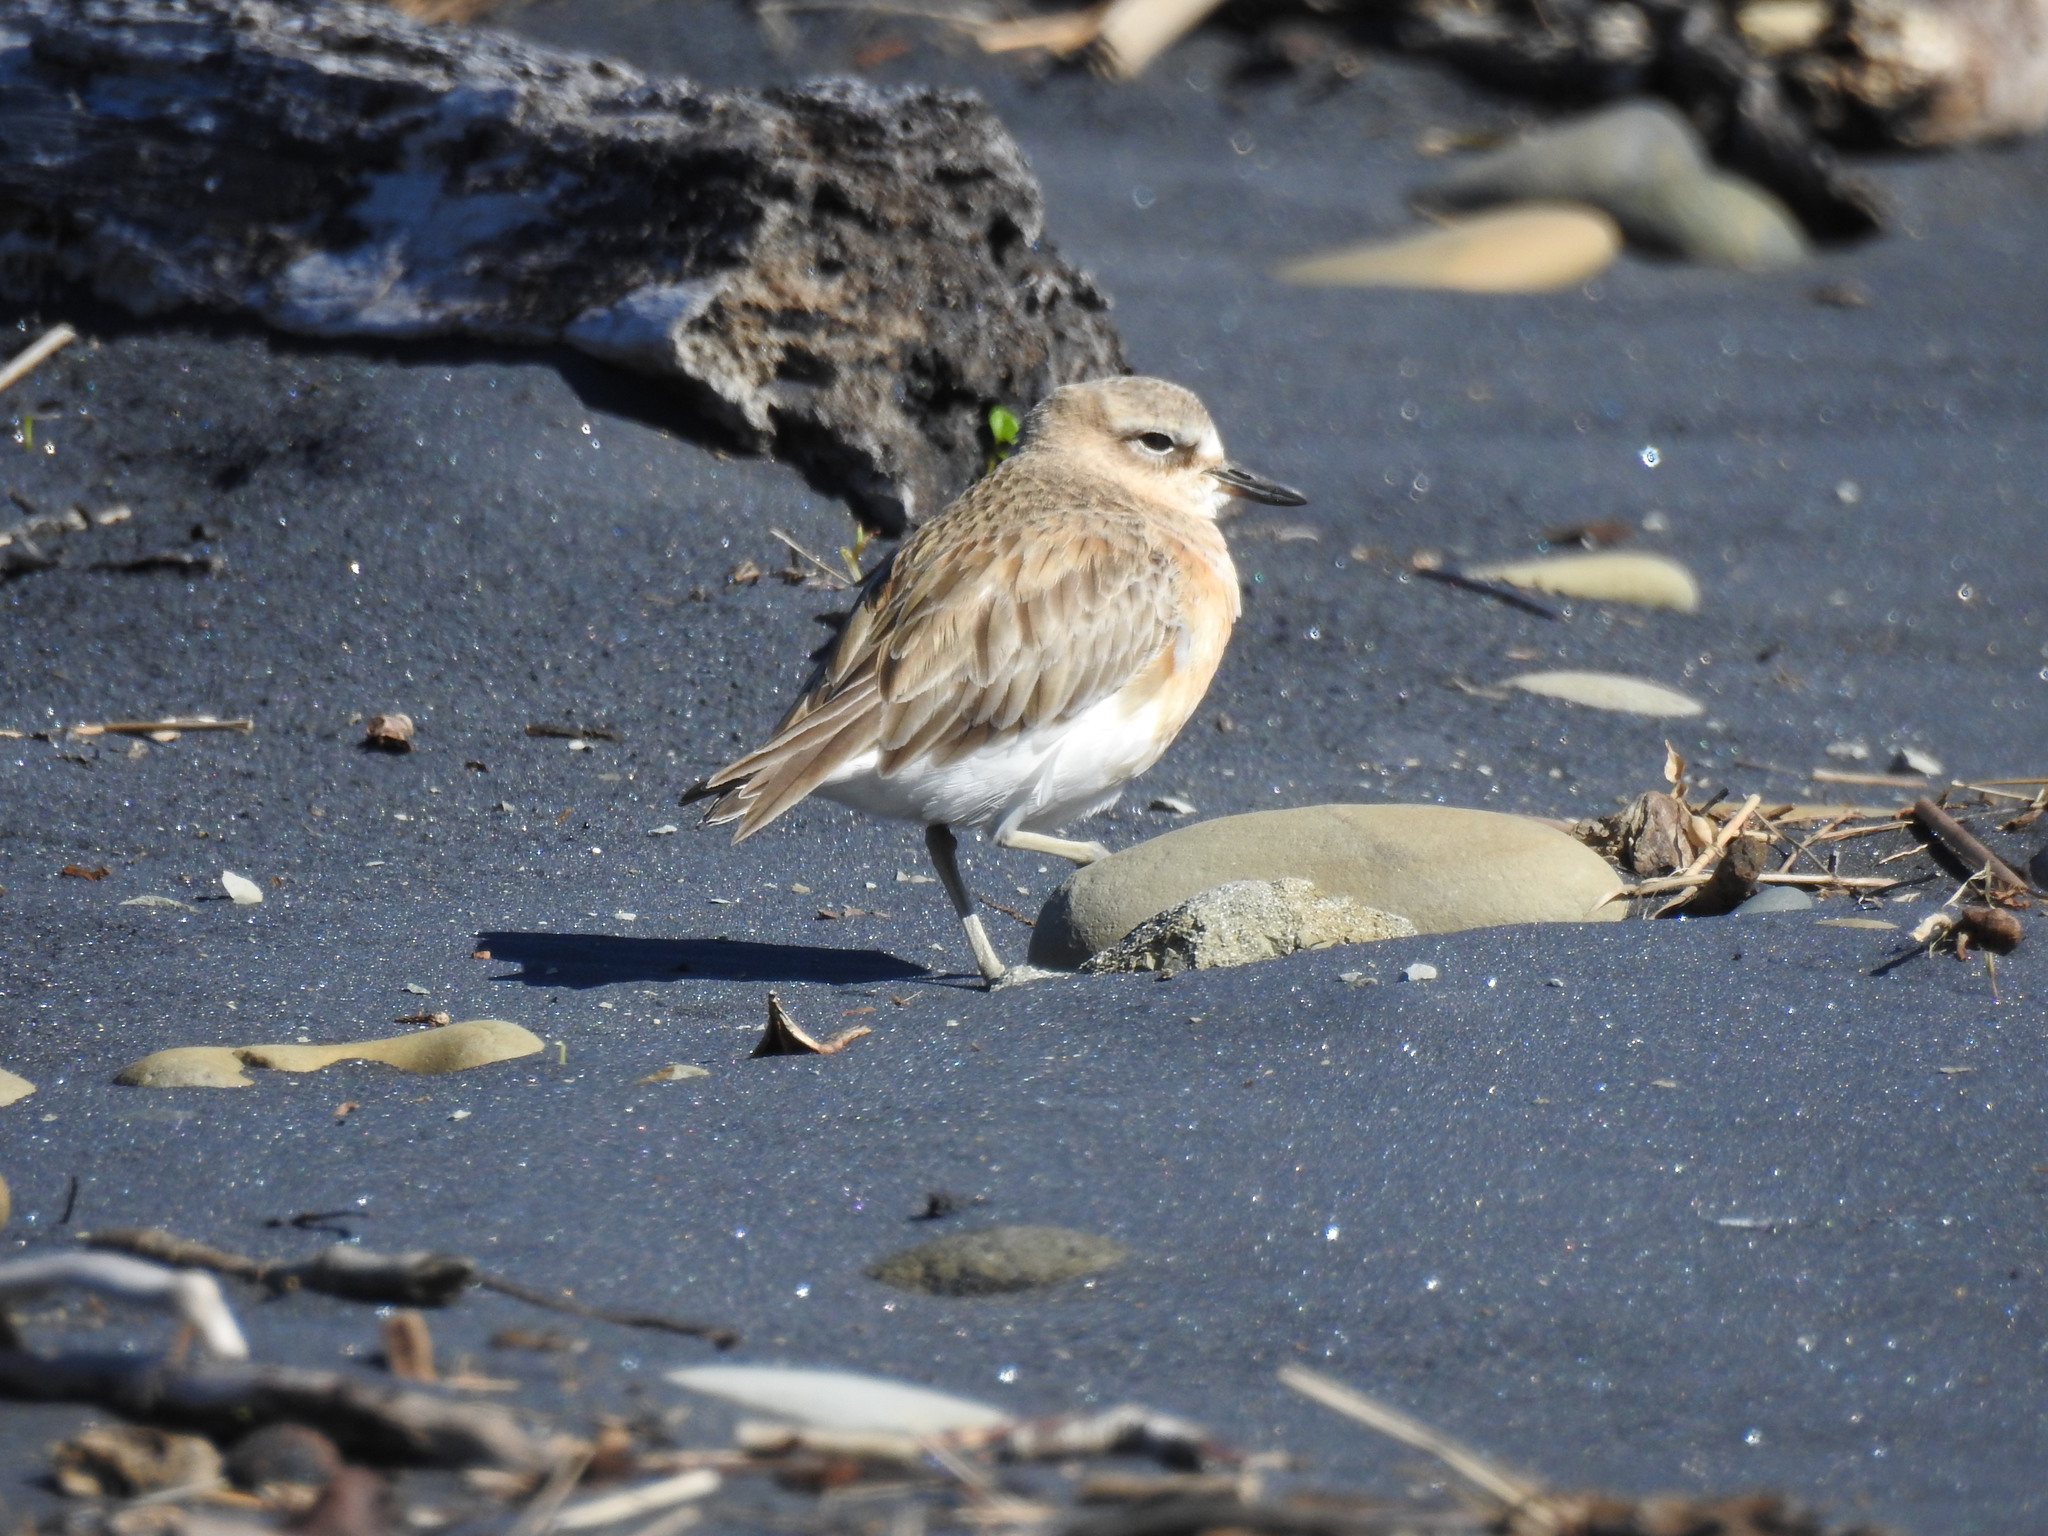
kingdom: Animalia
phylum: Chordata
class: Aves
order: Charadriiformes
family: Charadriidae
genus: Anarhynchus
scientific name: Anarhynchus
